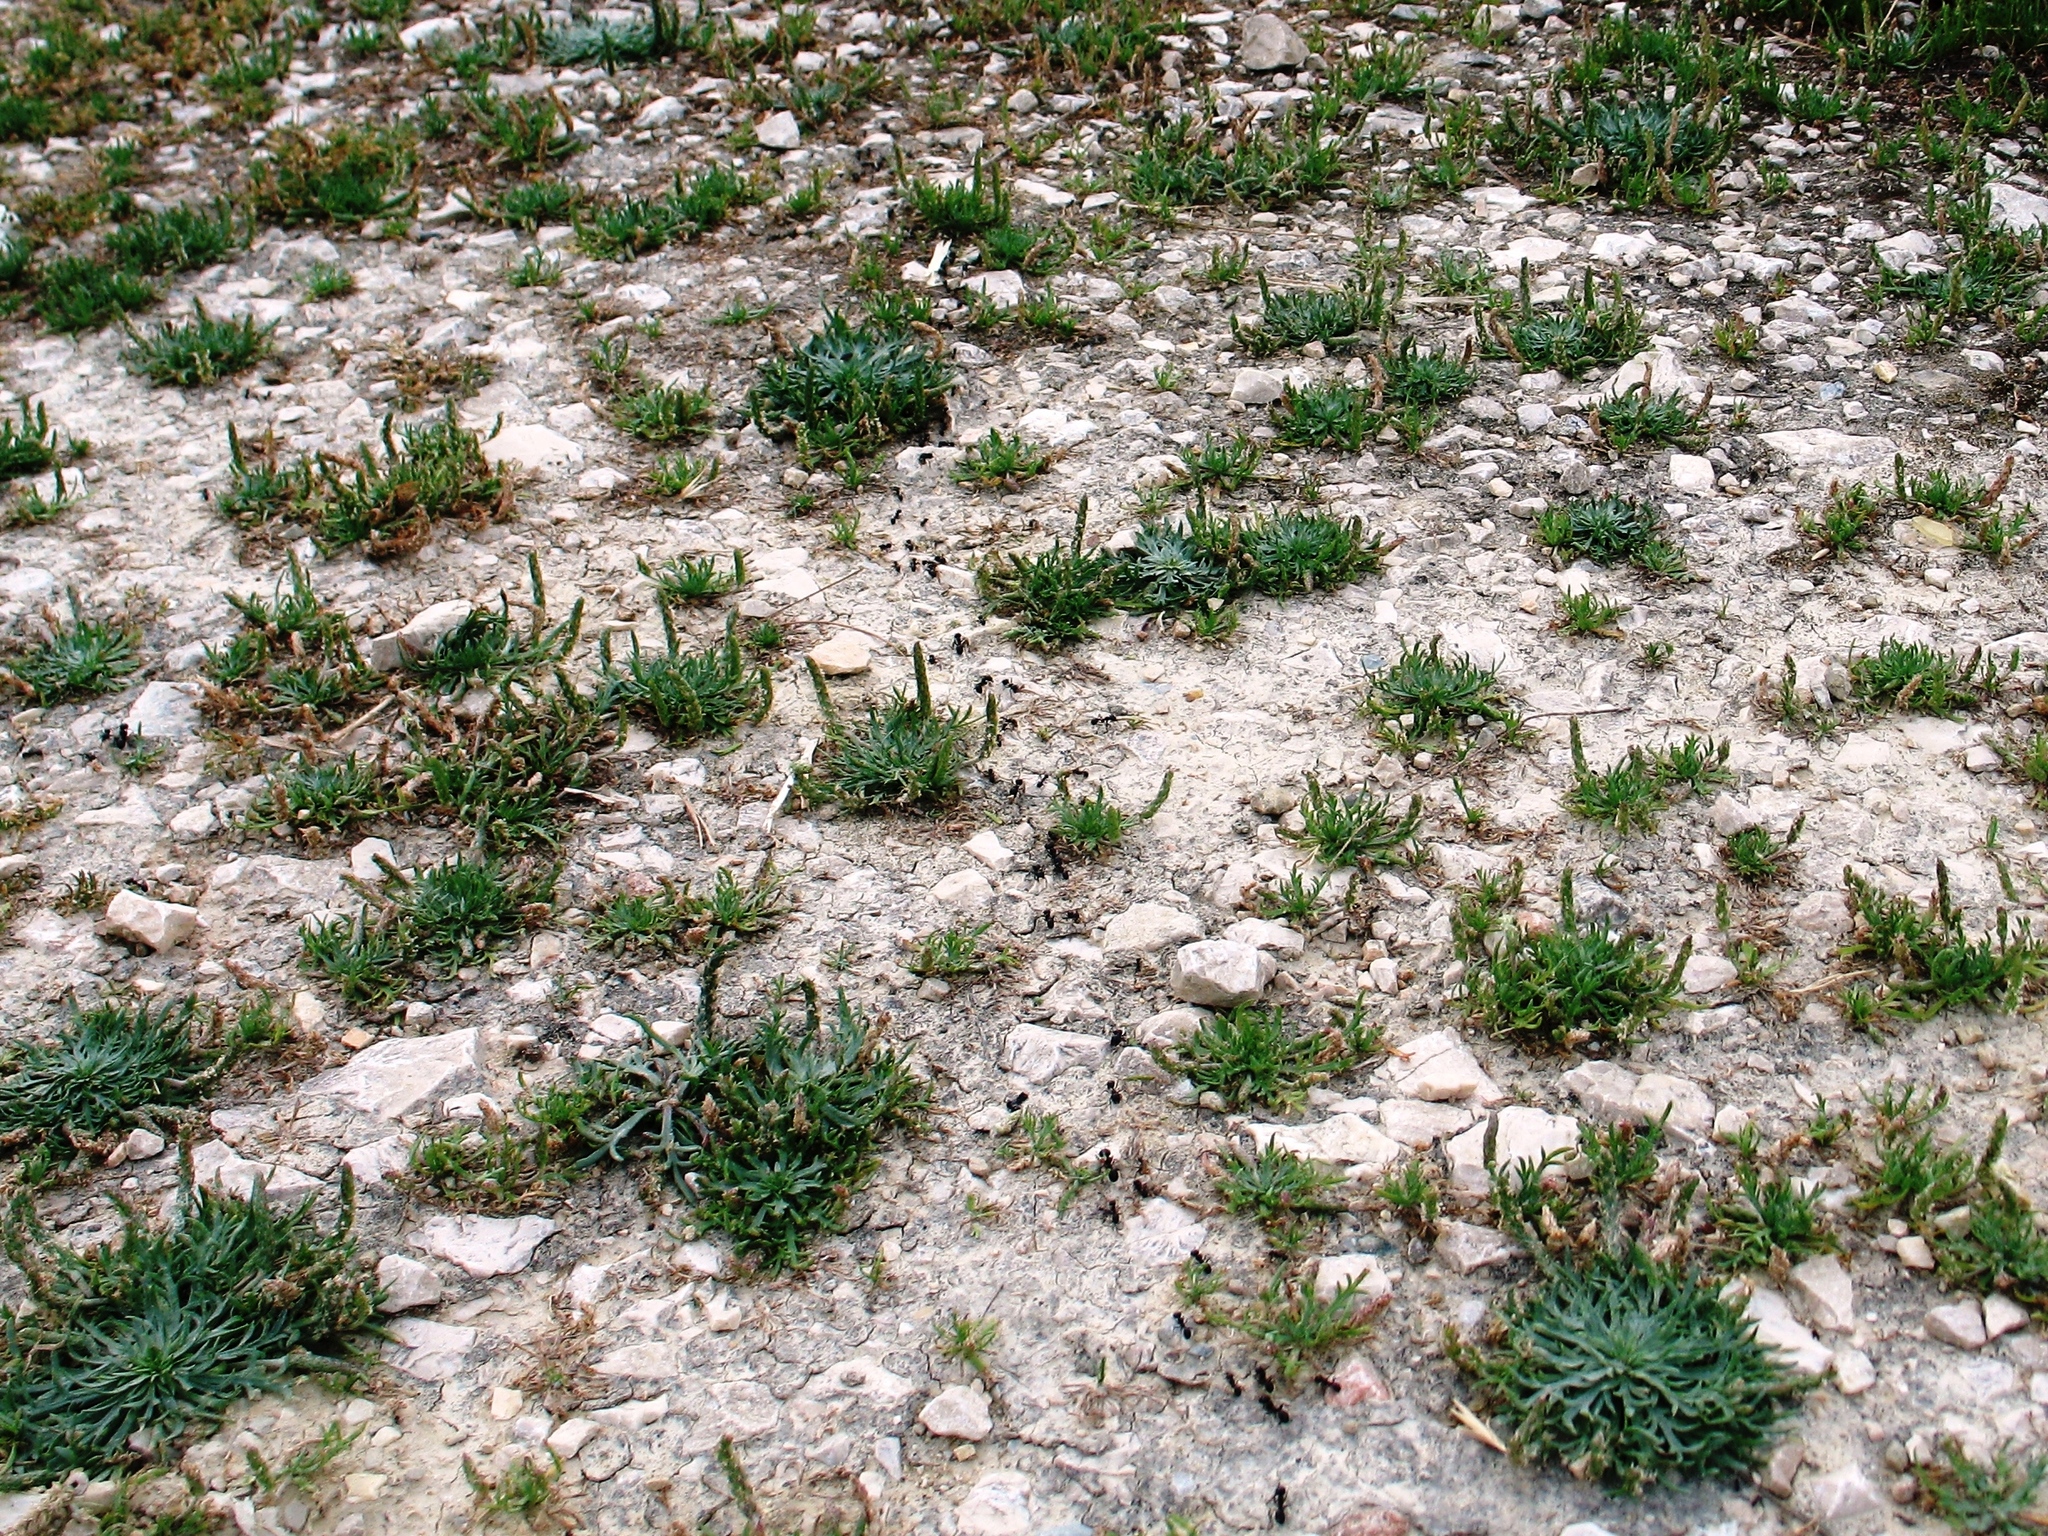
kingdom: Plantae
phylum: Tracheophyta
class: Magnoliopsida
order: Lamiales
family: Plantaginaceae
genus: Plantago
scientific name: Plantago coronopus
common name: Buck's-horn plantain
